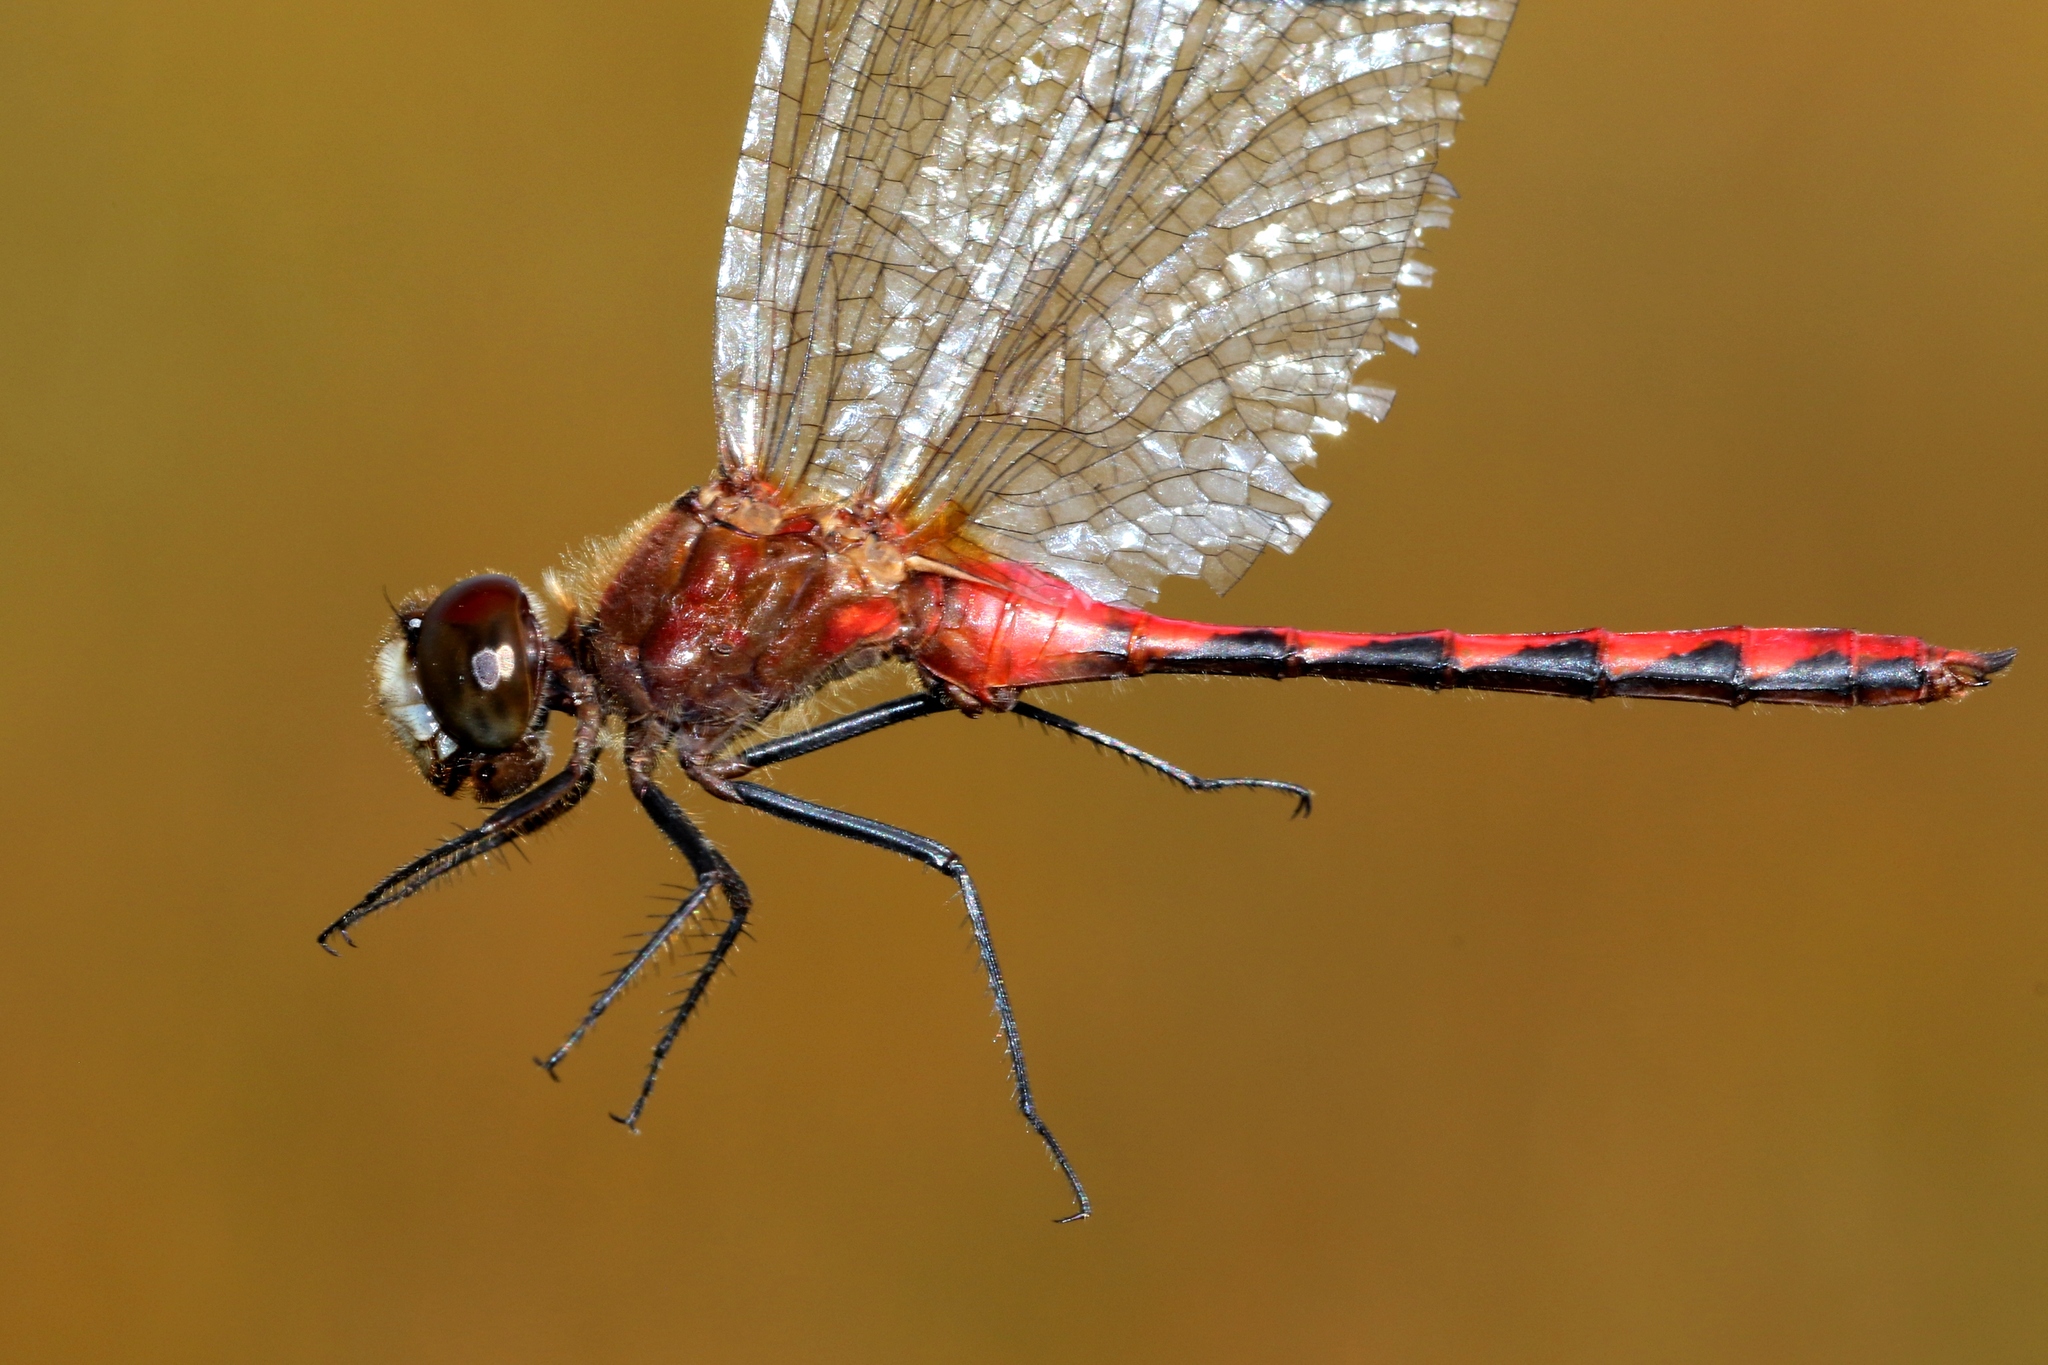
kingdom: Animalia
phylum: Arthropoda
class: Insecta
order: Odonata
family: Libellulidae
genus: Sympetrum
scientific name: Sympetrum obtrusum
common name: White-faced meadowhawk
